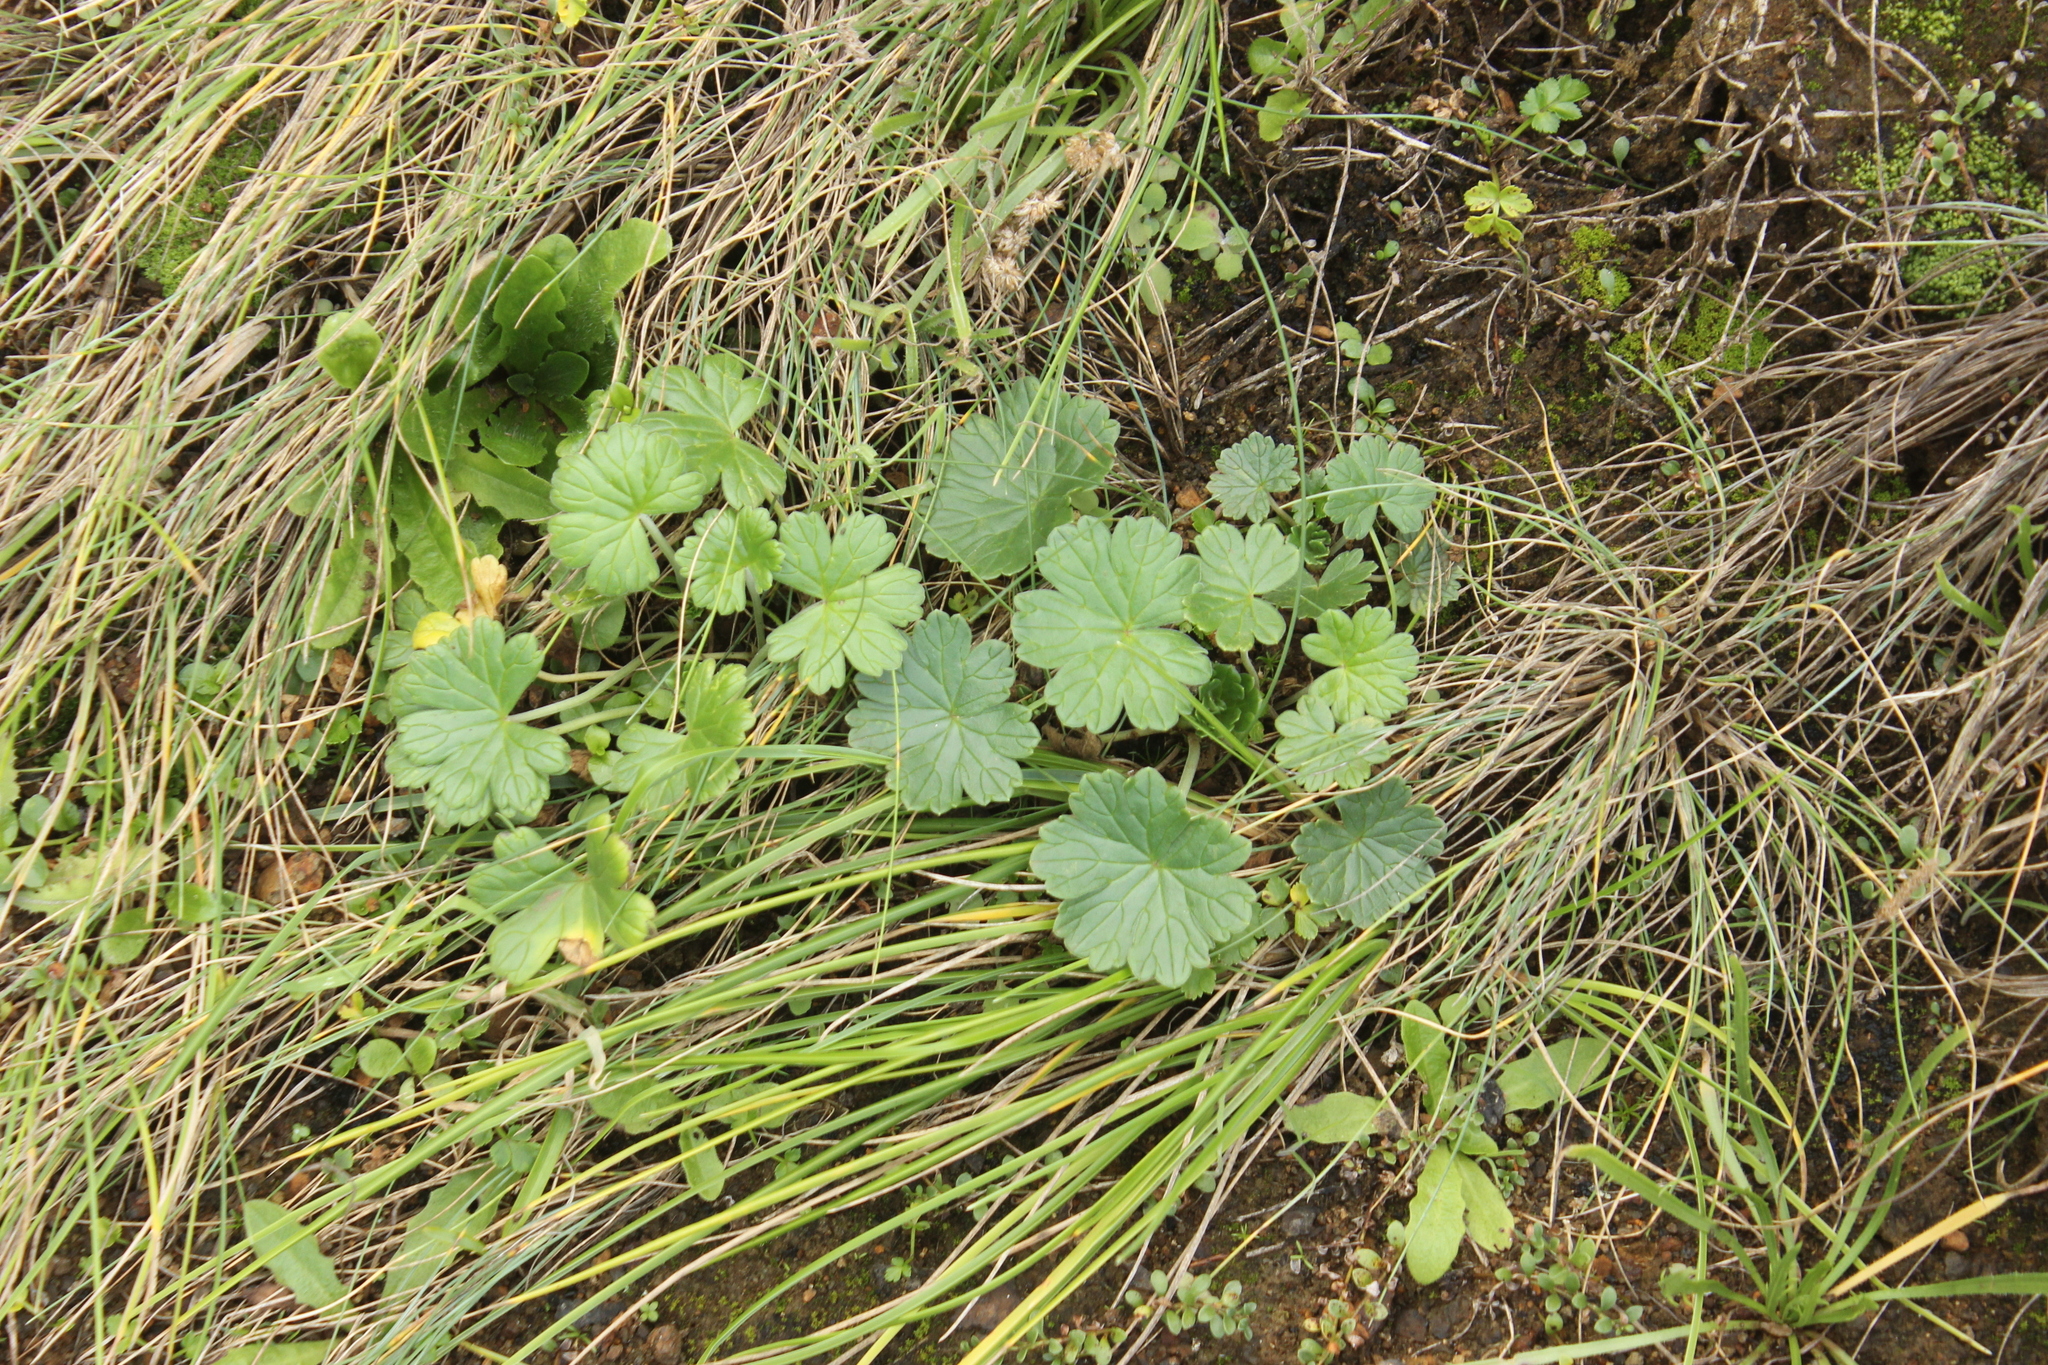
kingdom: Plantae
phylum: Tracheophyta
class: Magnoliopsida
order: Geraniales
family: Geraniaceae
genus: Geranium
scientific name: Geranium traversii
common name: Cranesbill
